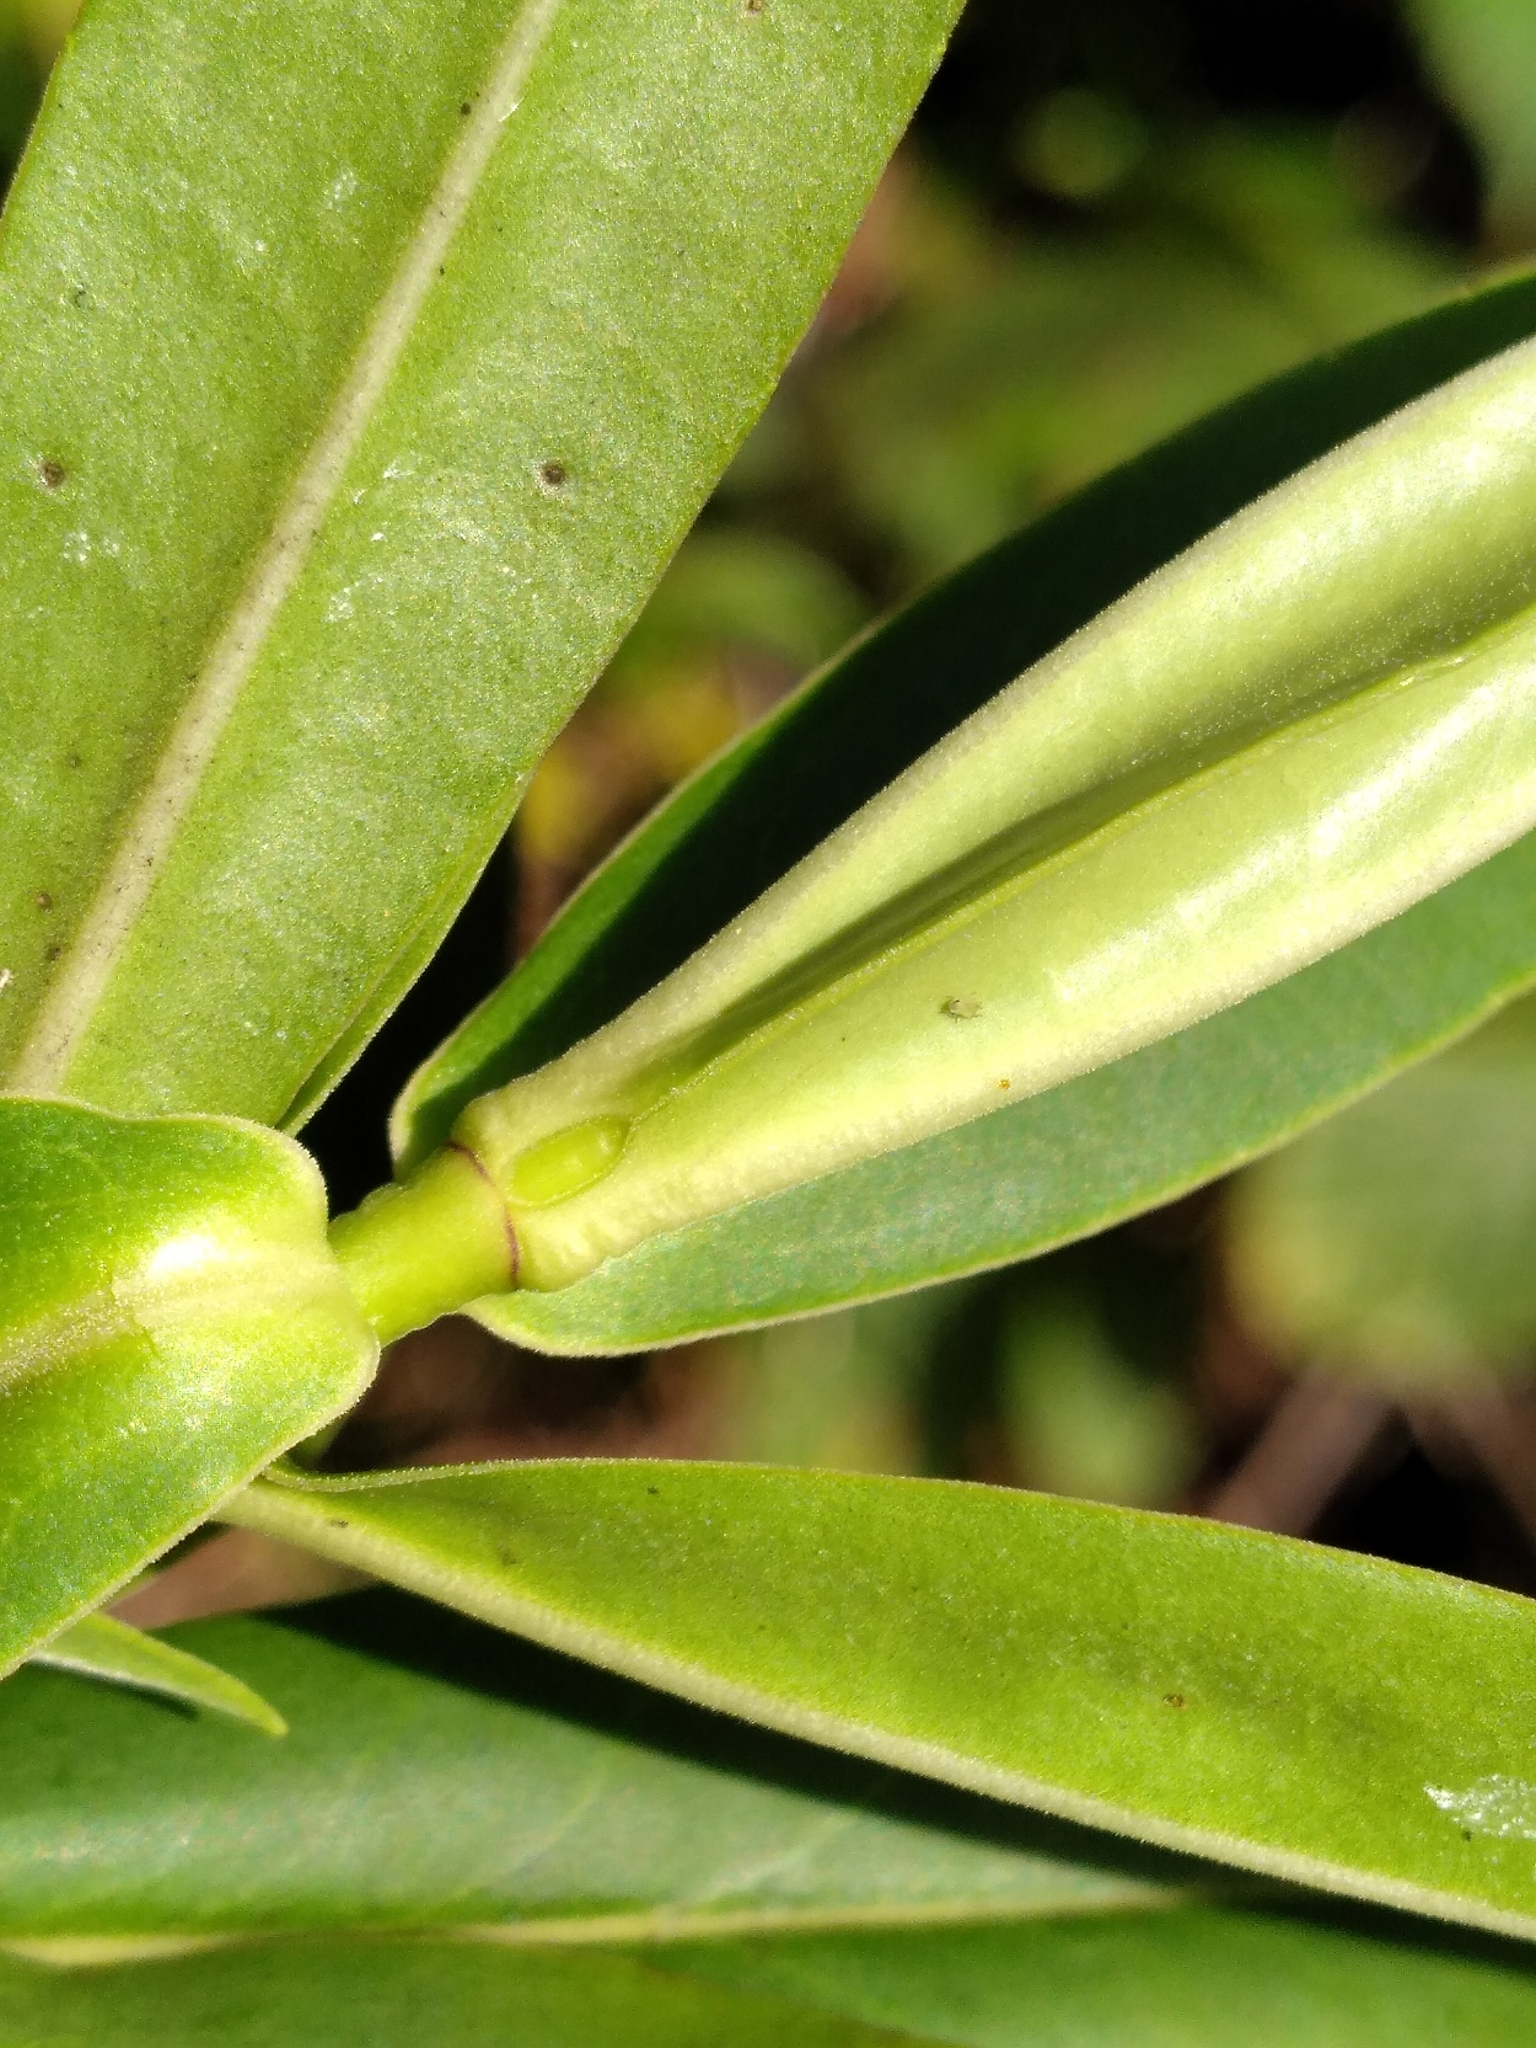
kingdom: Plantae
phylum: Tracheophyta
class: Magnoliopsida
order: Lamiales
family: Plantaginaceae
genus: Veronica
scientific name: Veronica salicifolia
